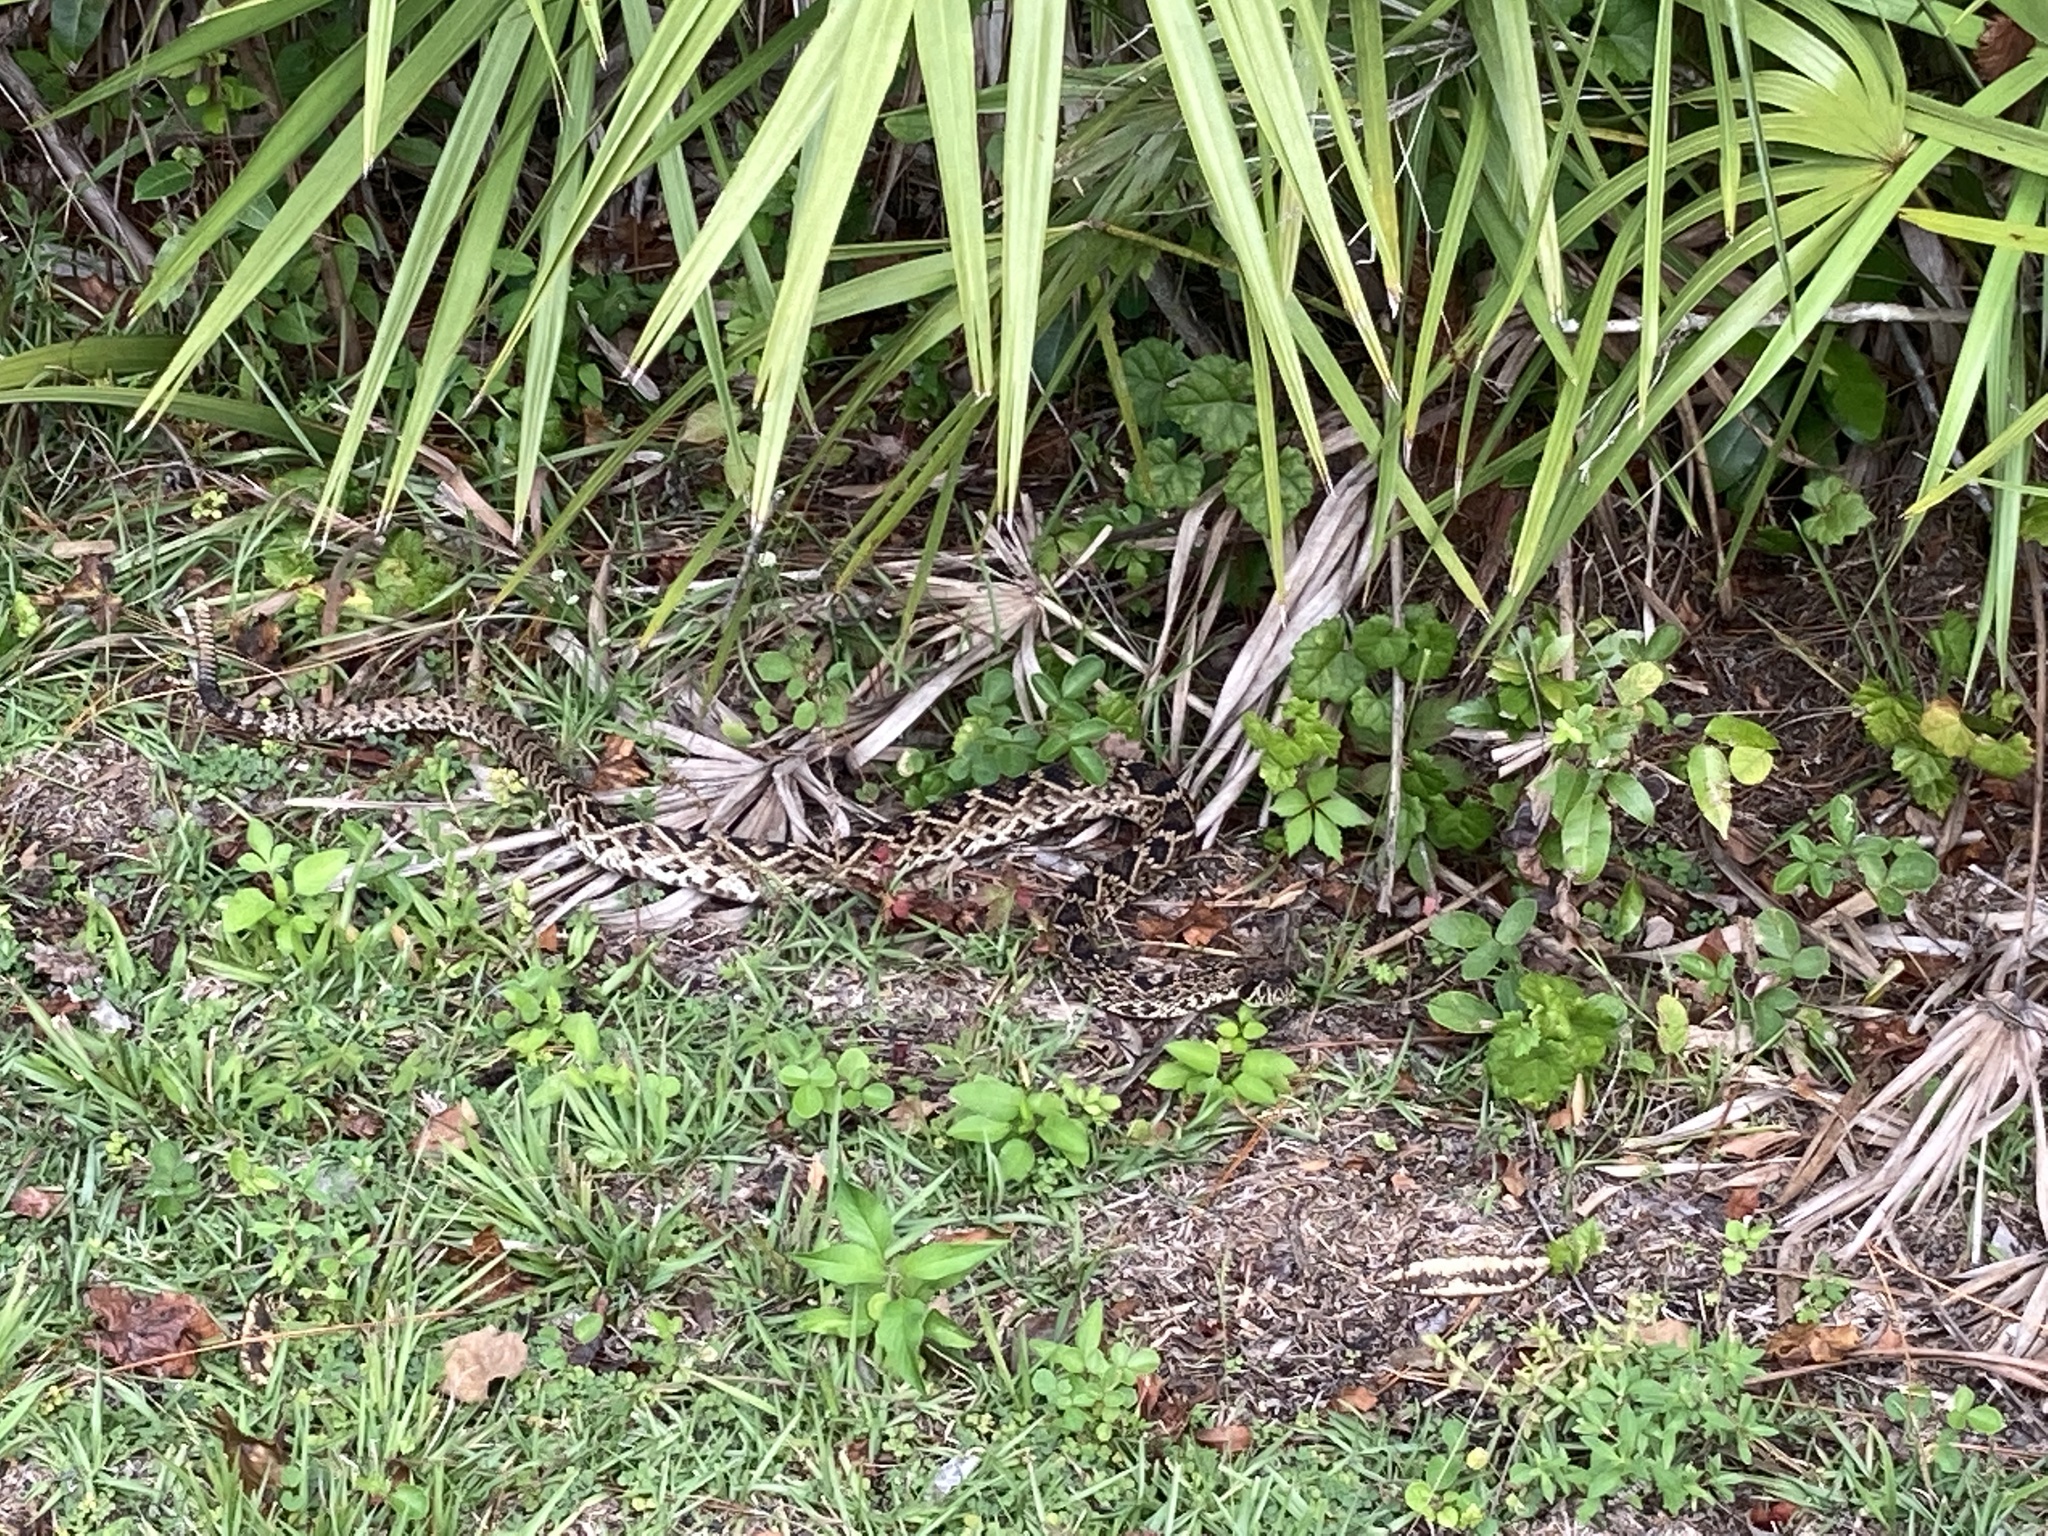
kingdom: Animalia
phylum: Chordata
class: Squamata
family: Viperidae
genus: Crotalus
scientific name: Crotalus adamanteus
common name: Eastern diamondback rattlesnake
